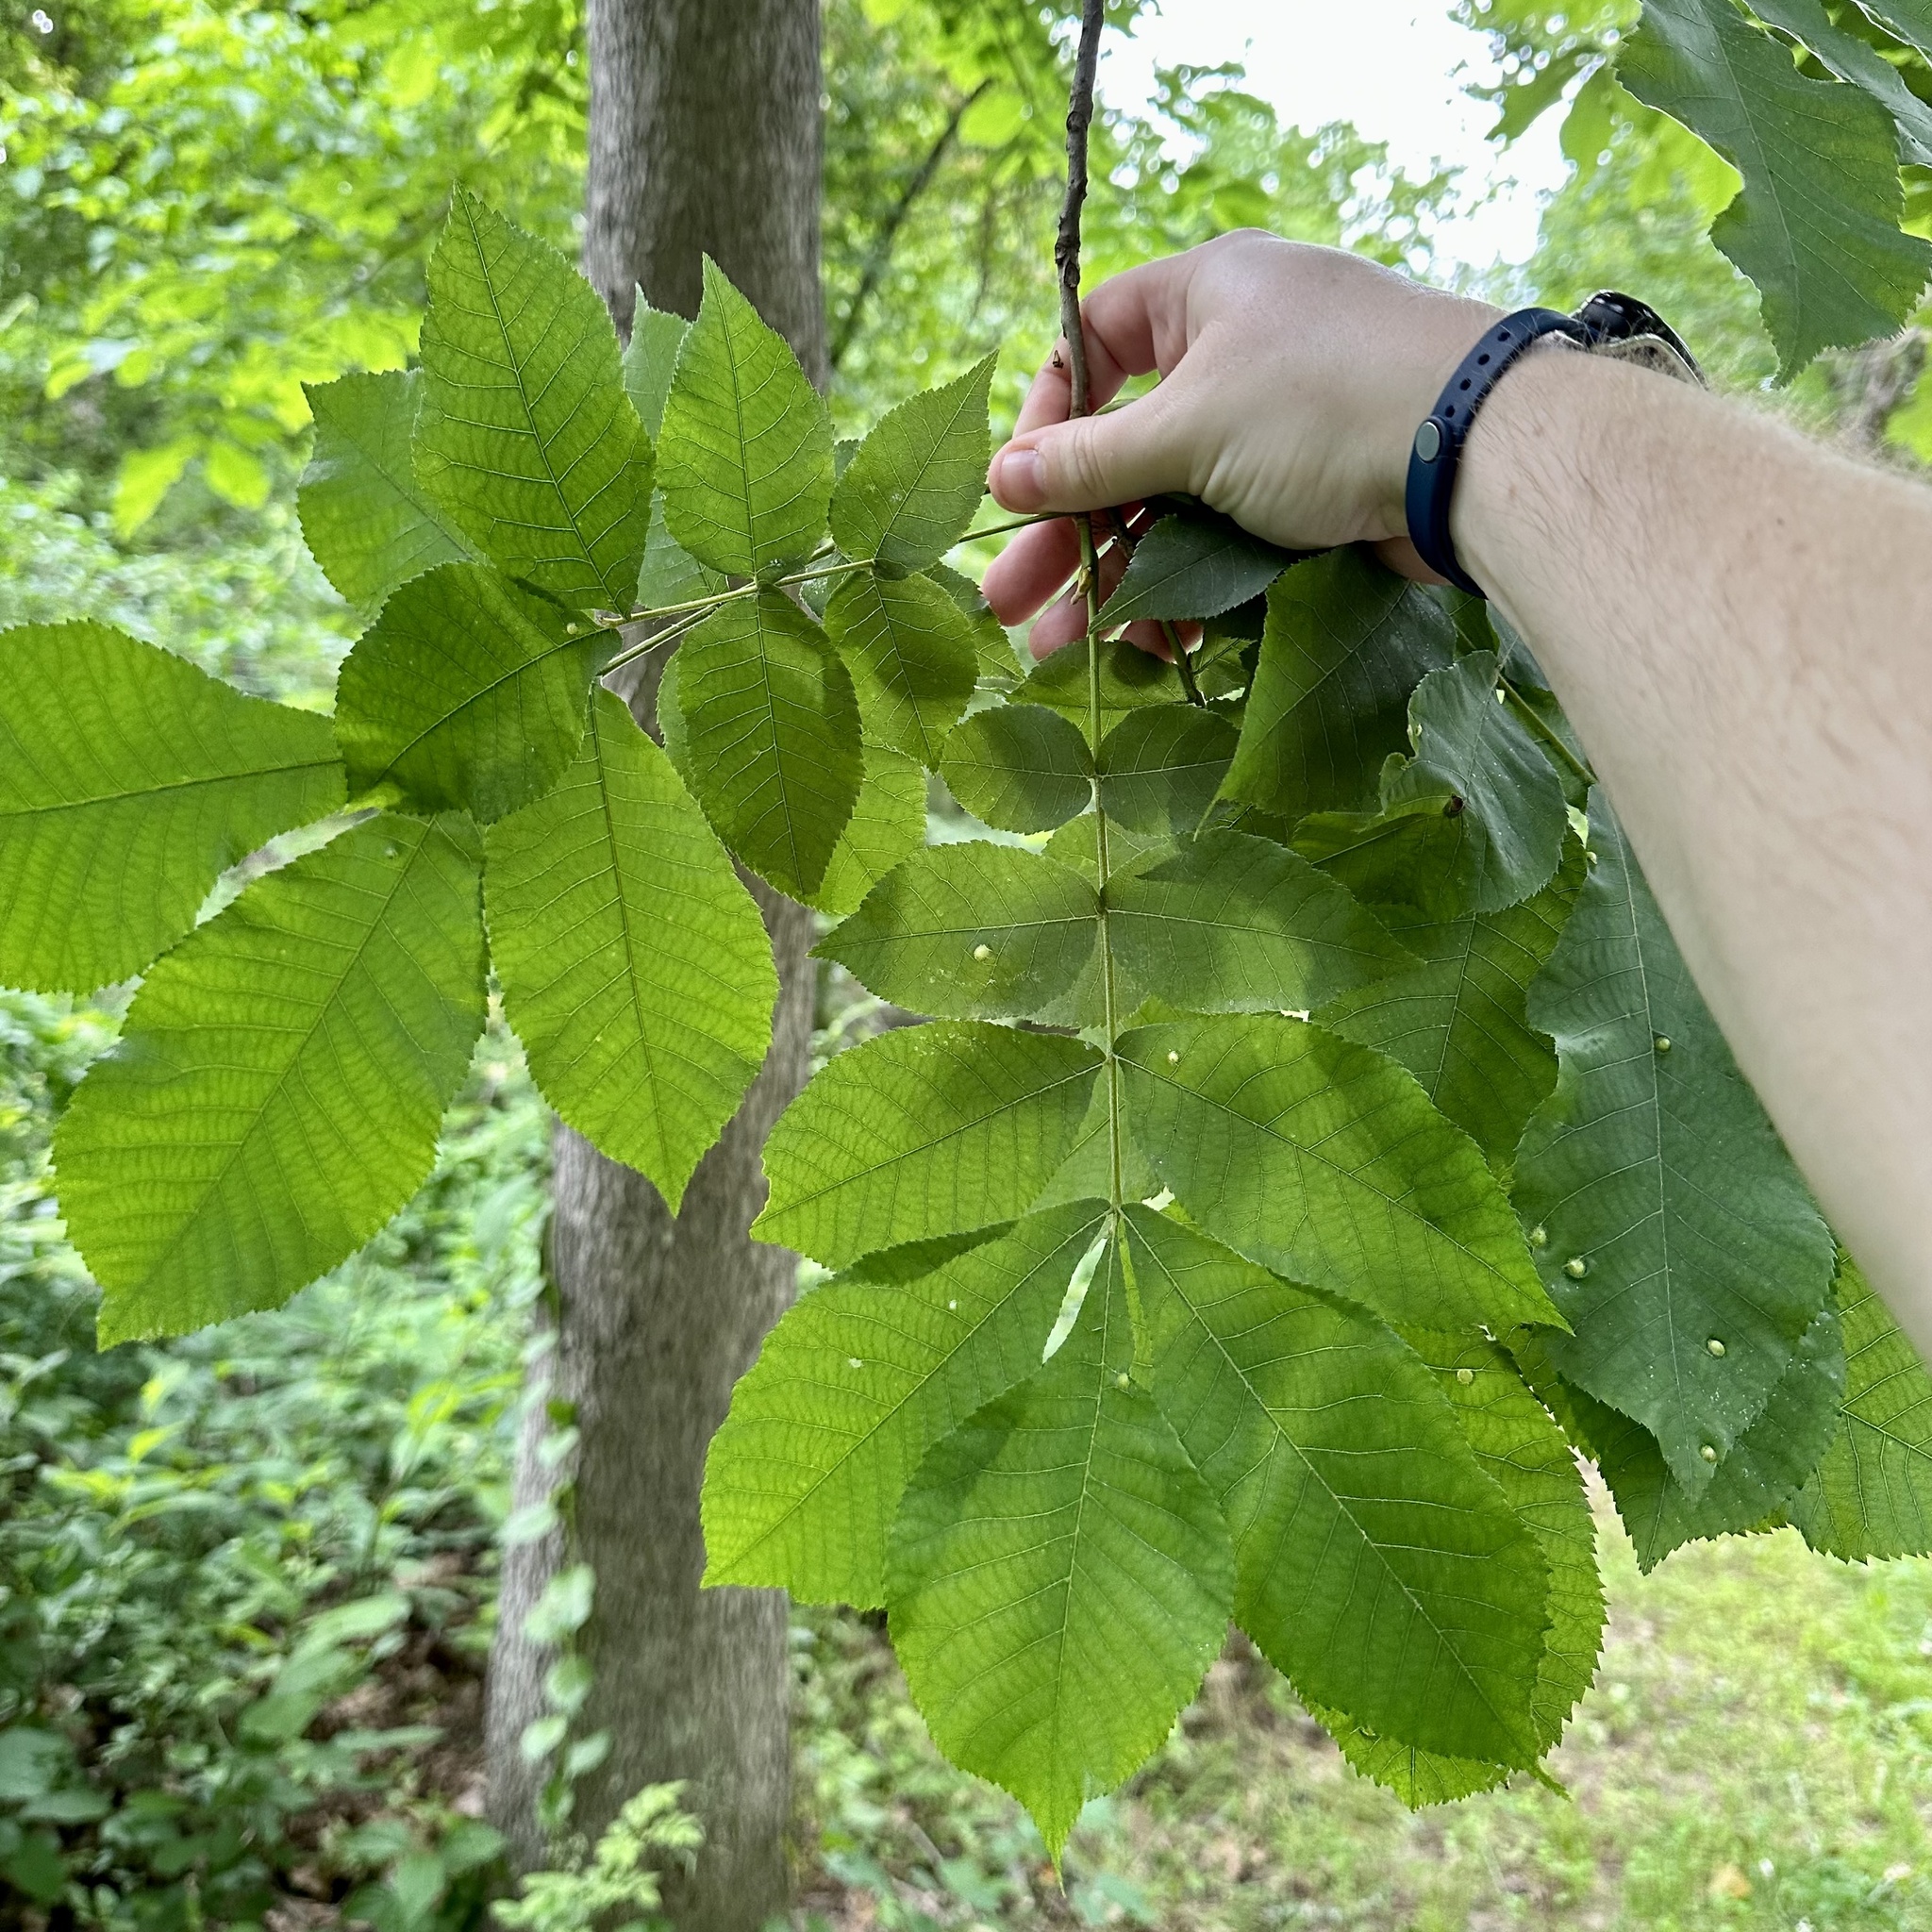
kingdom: Plantae
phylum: Tracheophyta
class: Magnoliopsida
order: Fagales
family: Juglandaceae
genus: Carya
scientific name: Carya cordiformis
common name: Bitternut hickory
